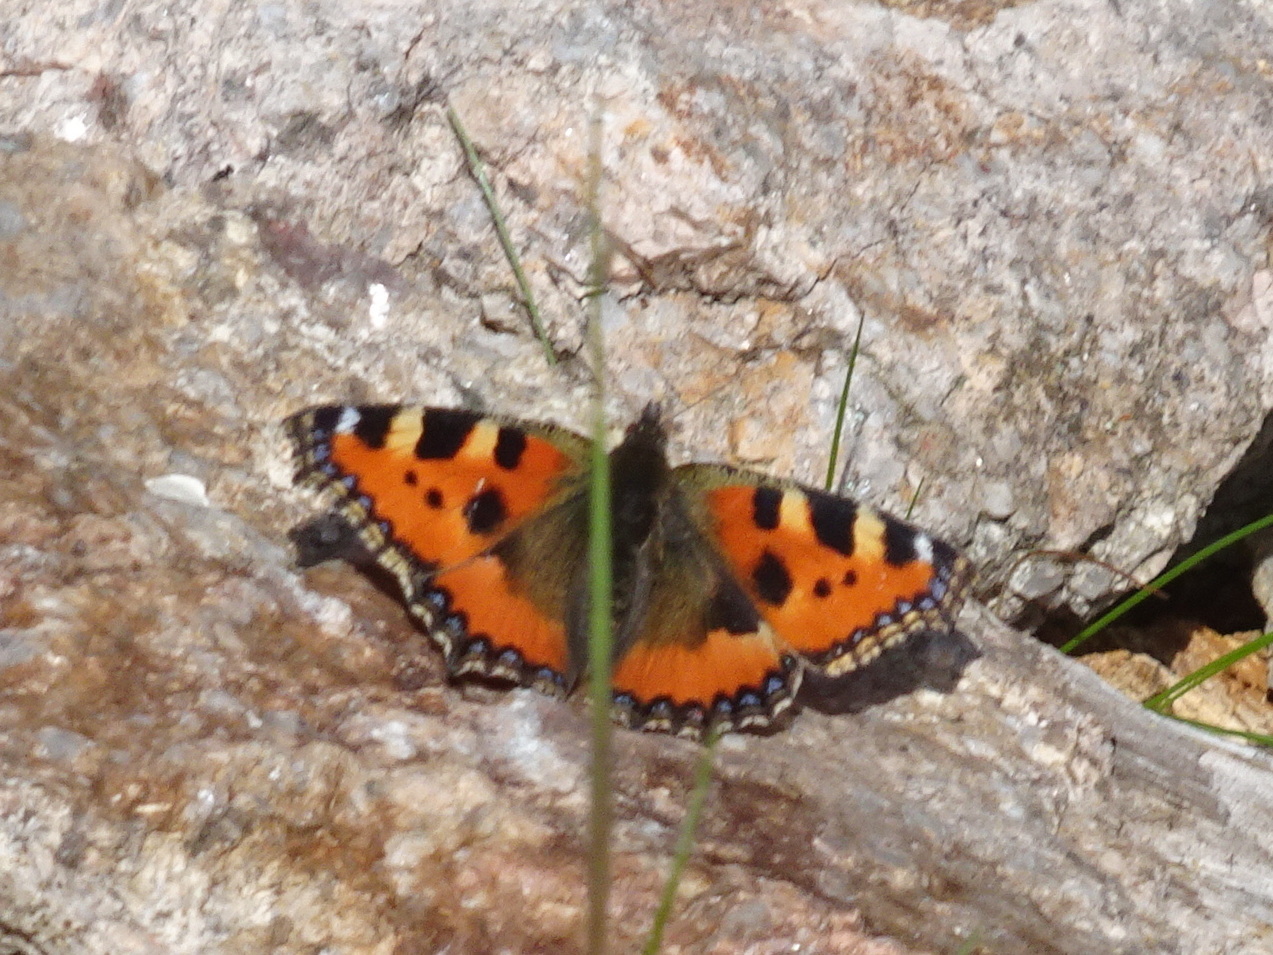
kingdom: Animalia
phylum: Arthropoda
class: Insecta
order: Lepidoptera
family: Nymphalidae
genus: Aglais
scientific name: Aglais urticae
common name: Small tortoiseshell
